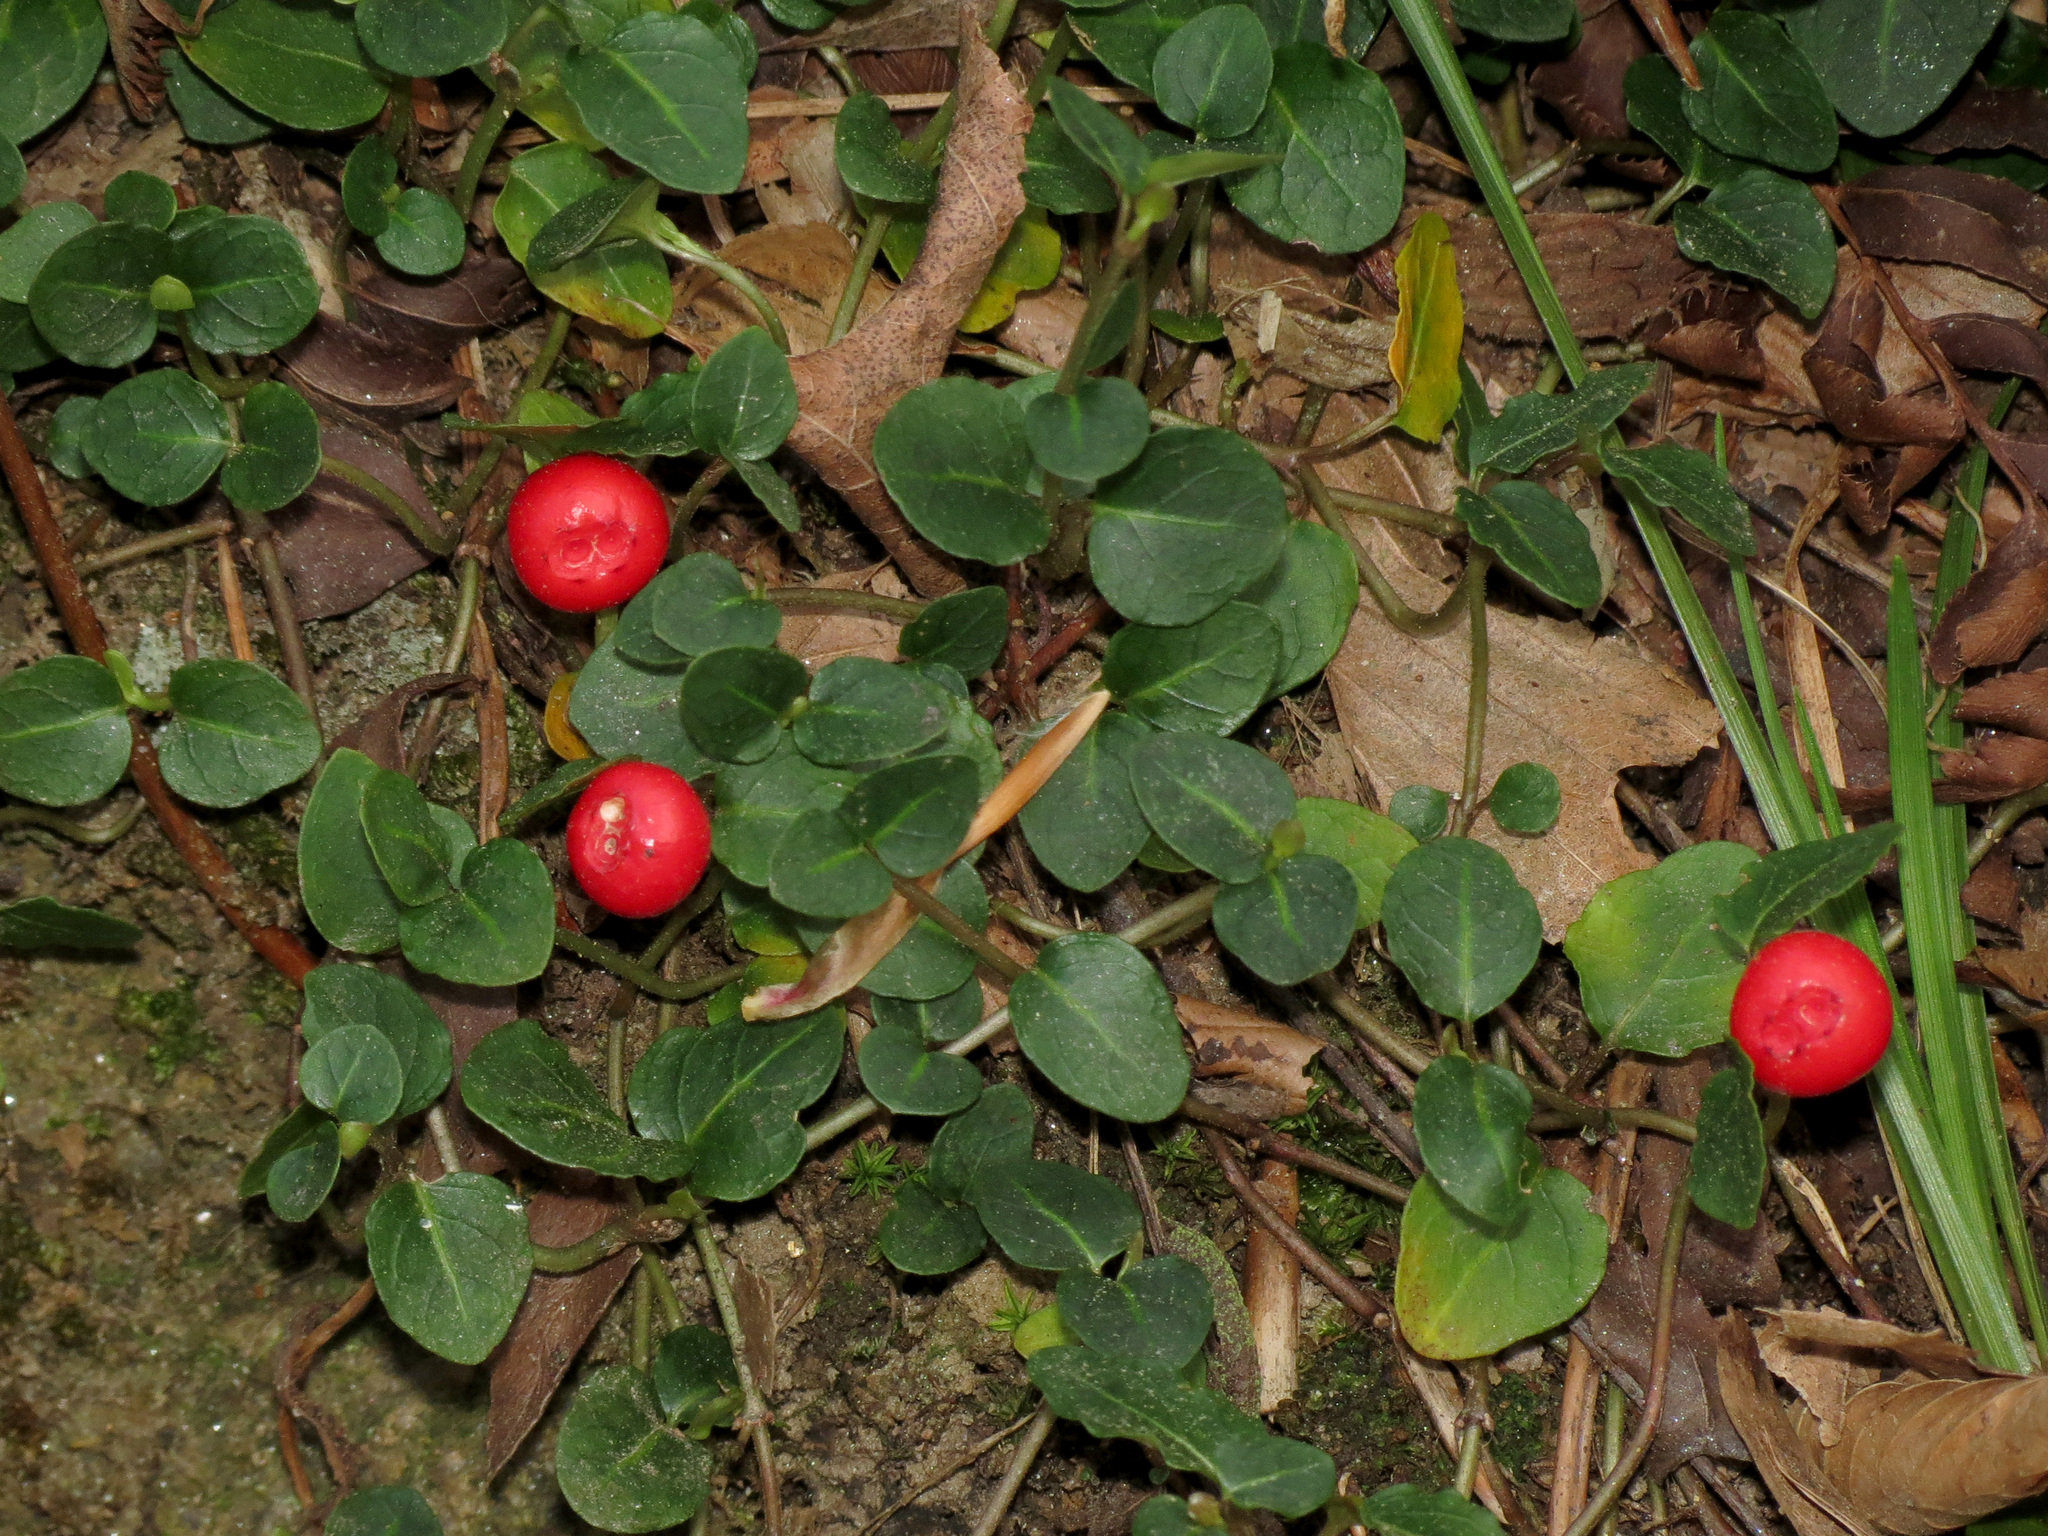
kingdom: Plantae
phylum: Tracheophyta
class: Magnoliopsida
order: Gentianales
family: Rubiaceae
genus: Mitchella
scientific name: Mitchella repens
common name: Partridge-berry
